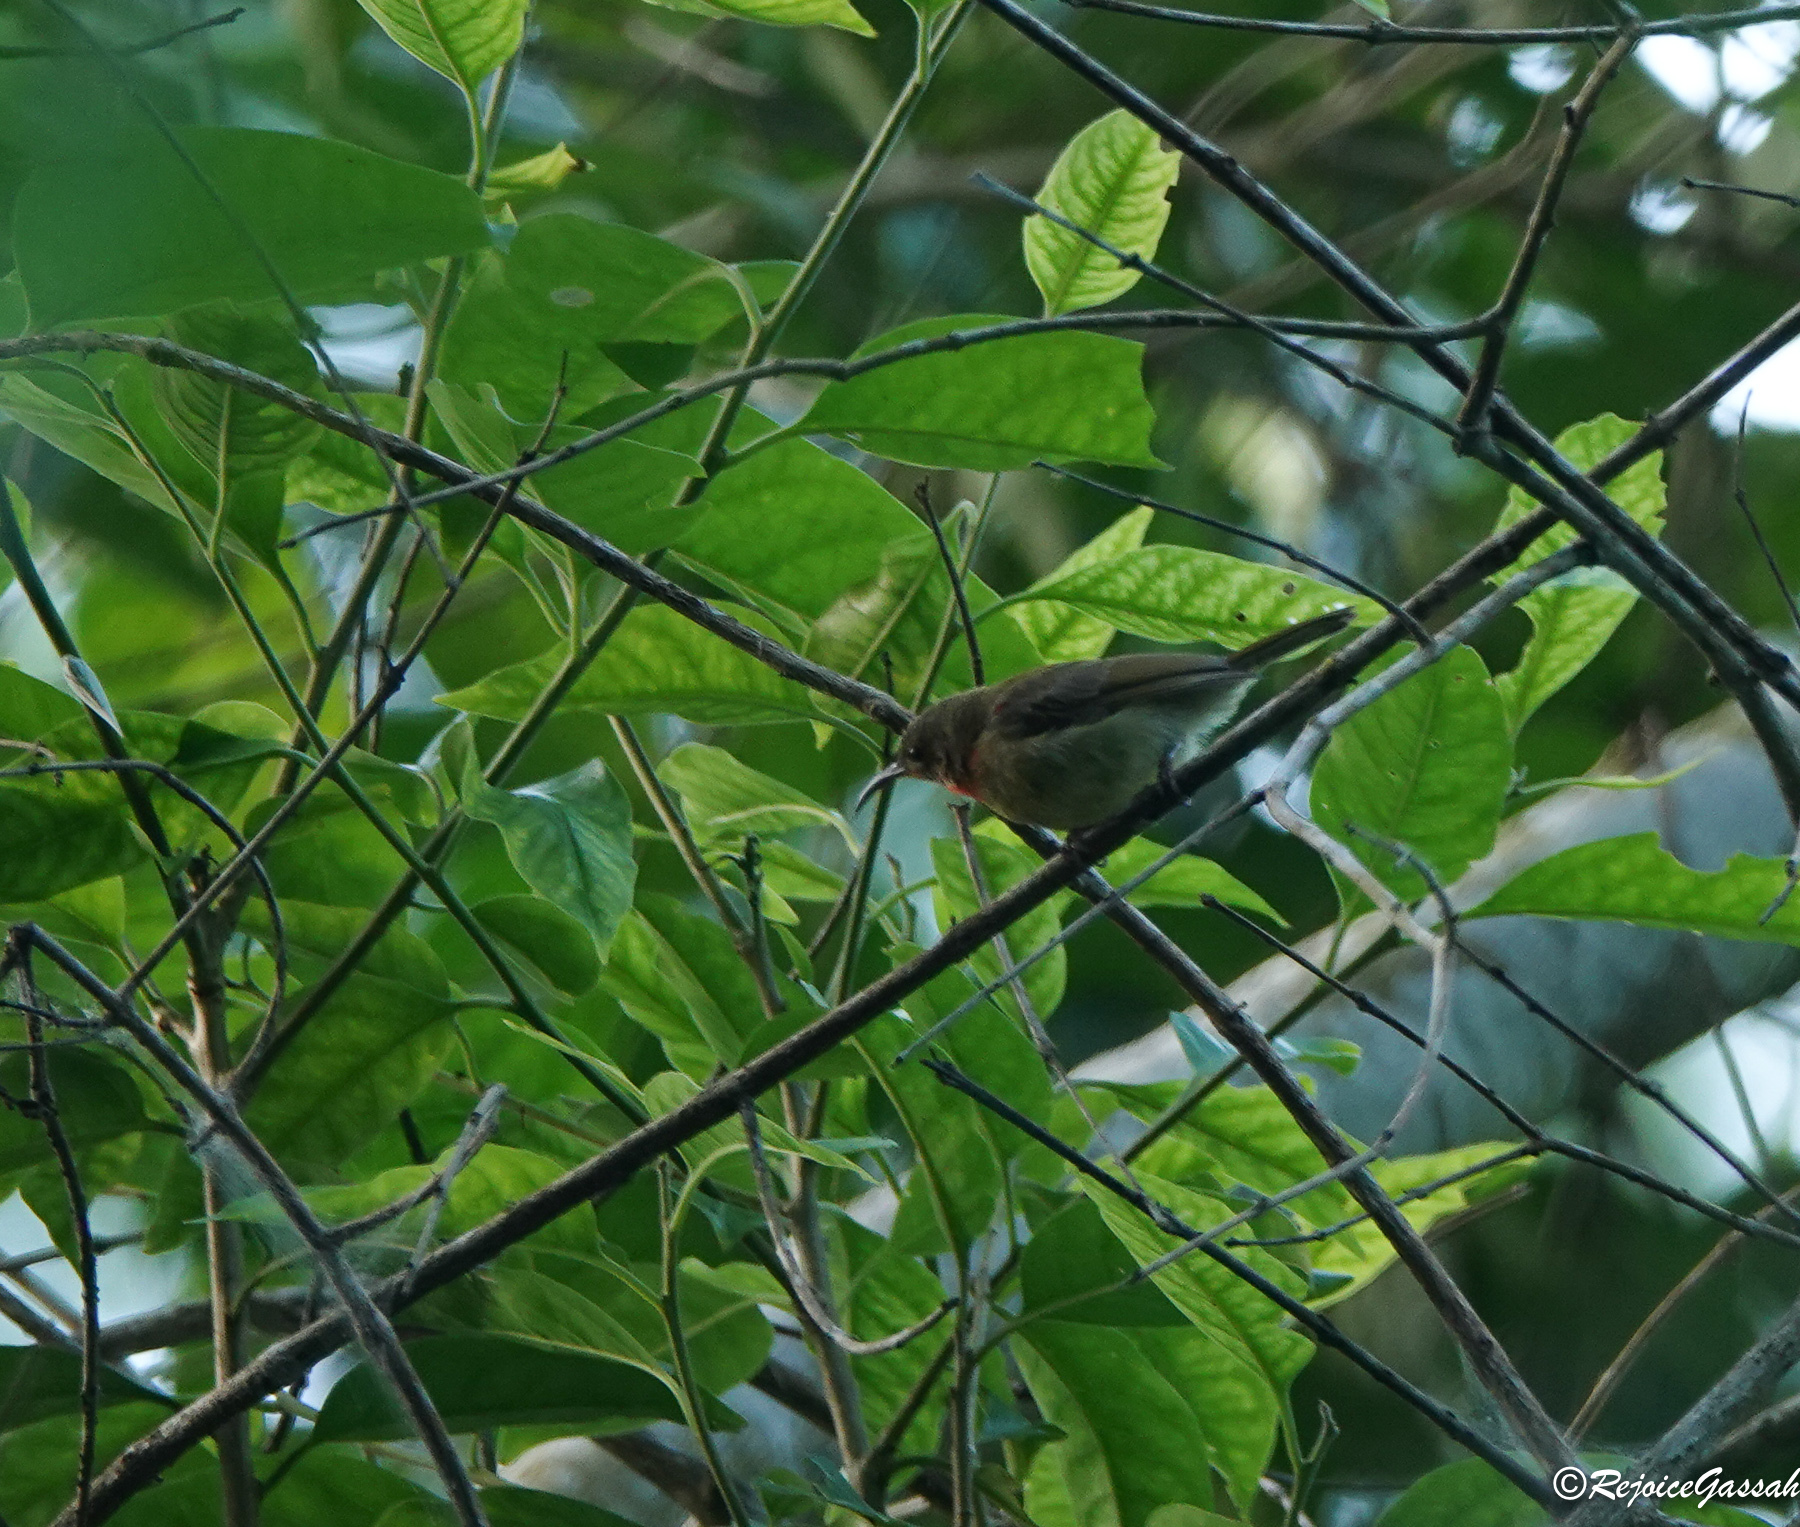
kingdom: Animalia
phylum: Chordata
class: Aves
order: Passeriformes
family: Nectariniidae
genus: Aethopyga
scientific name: Aethopyga siparaja
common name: Crimson sunbird
